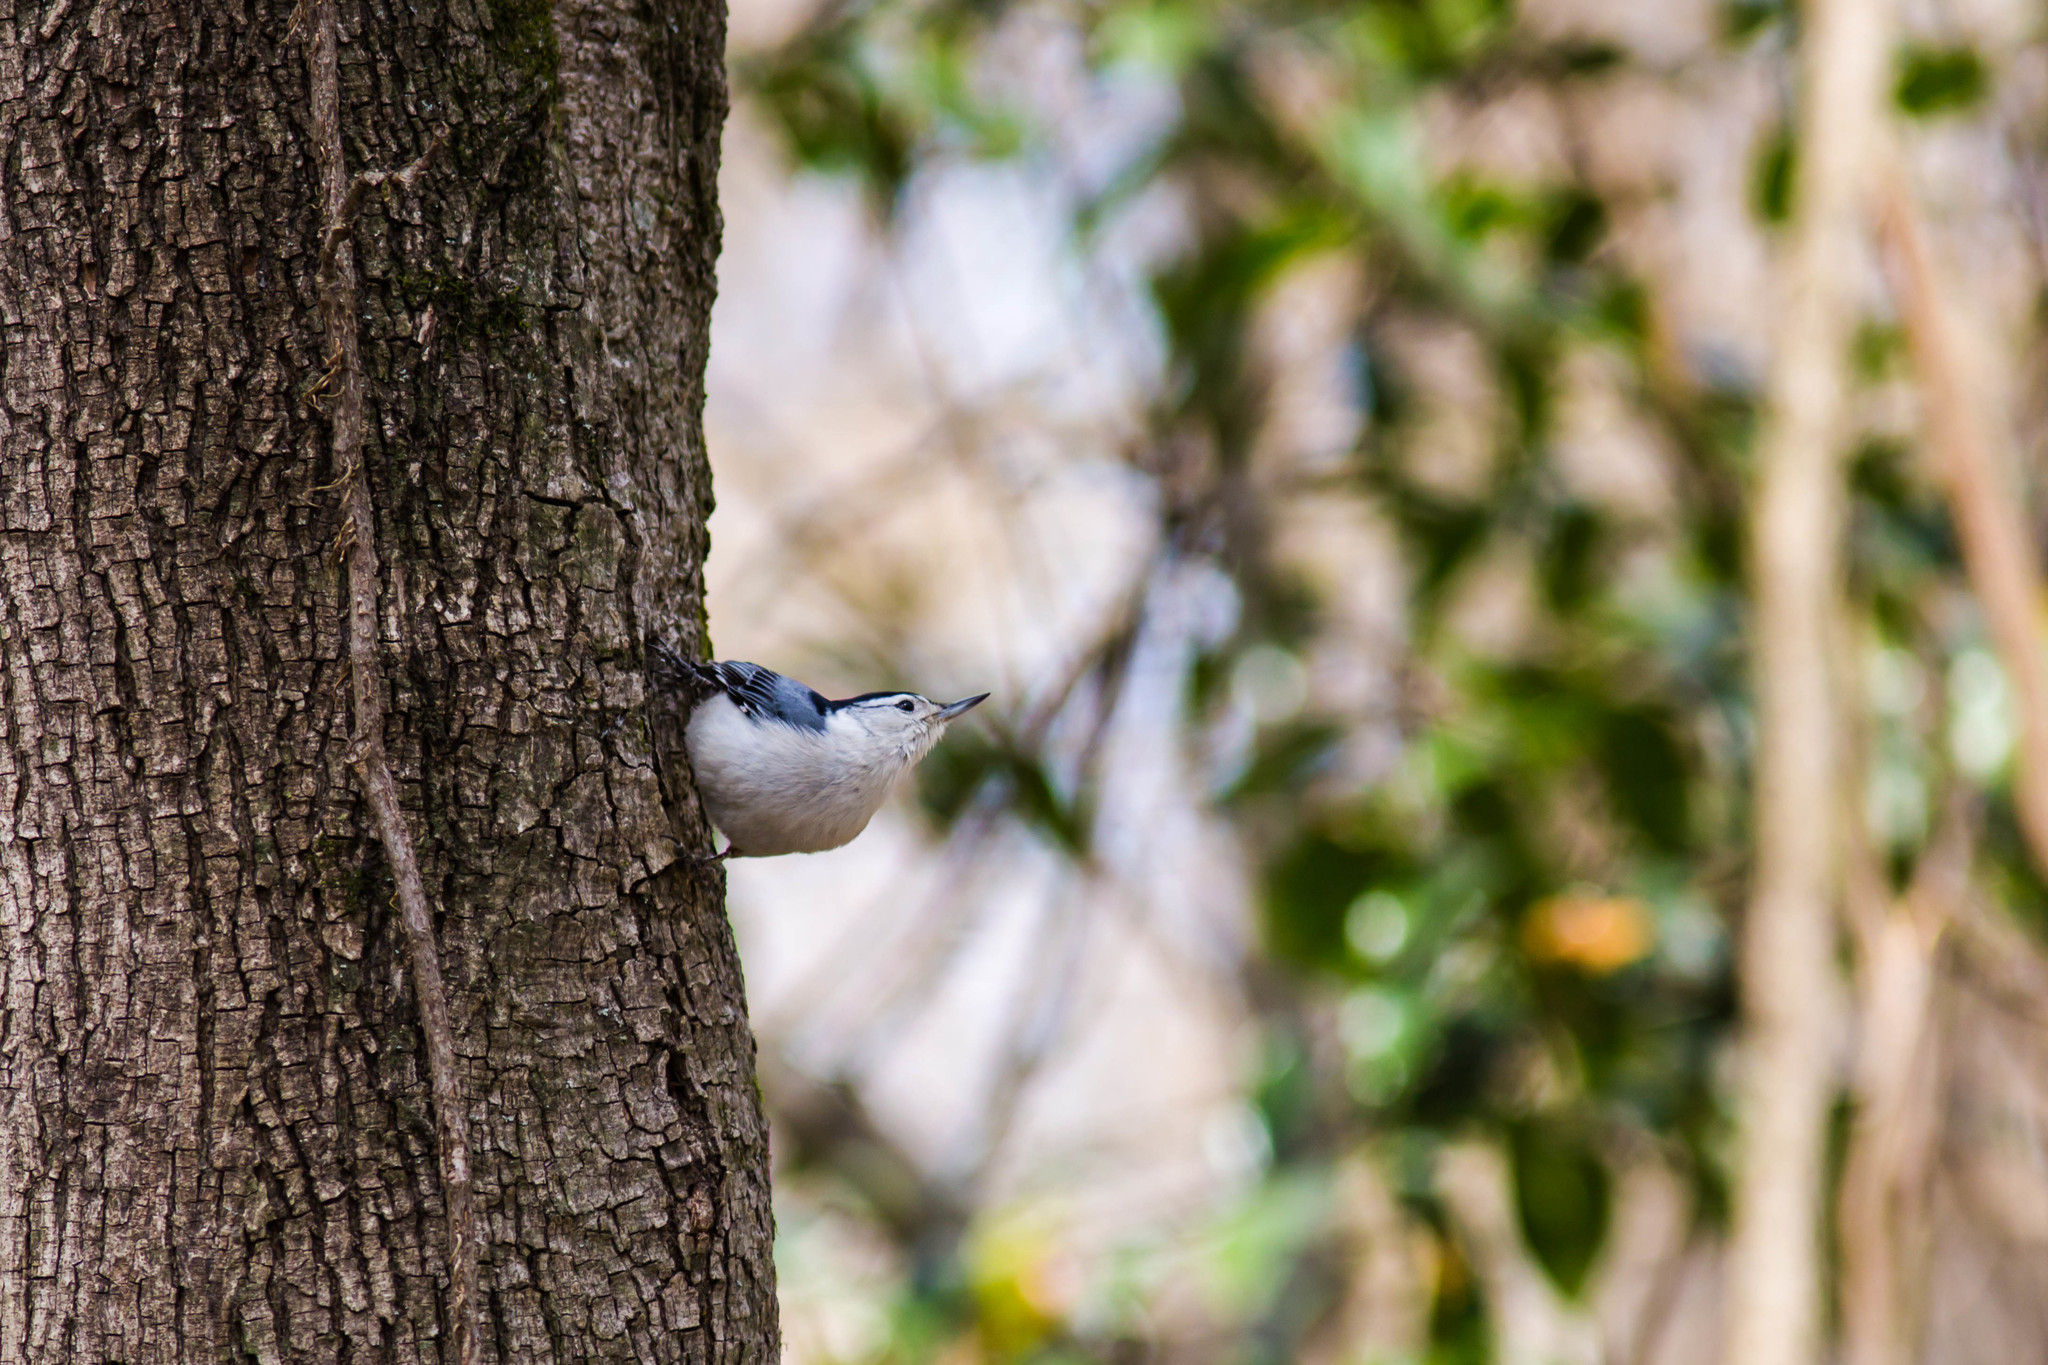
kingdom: Animalia
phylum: Chordata
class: Aves
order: Passeriformes
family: Sittidae
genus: Sitta
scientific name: Sitta carolinensis
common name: White-breasted nuthatch
